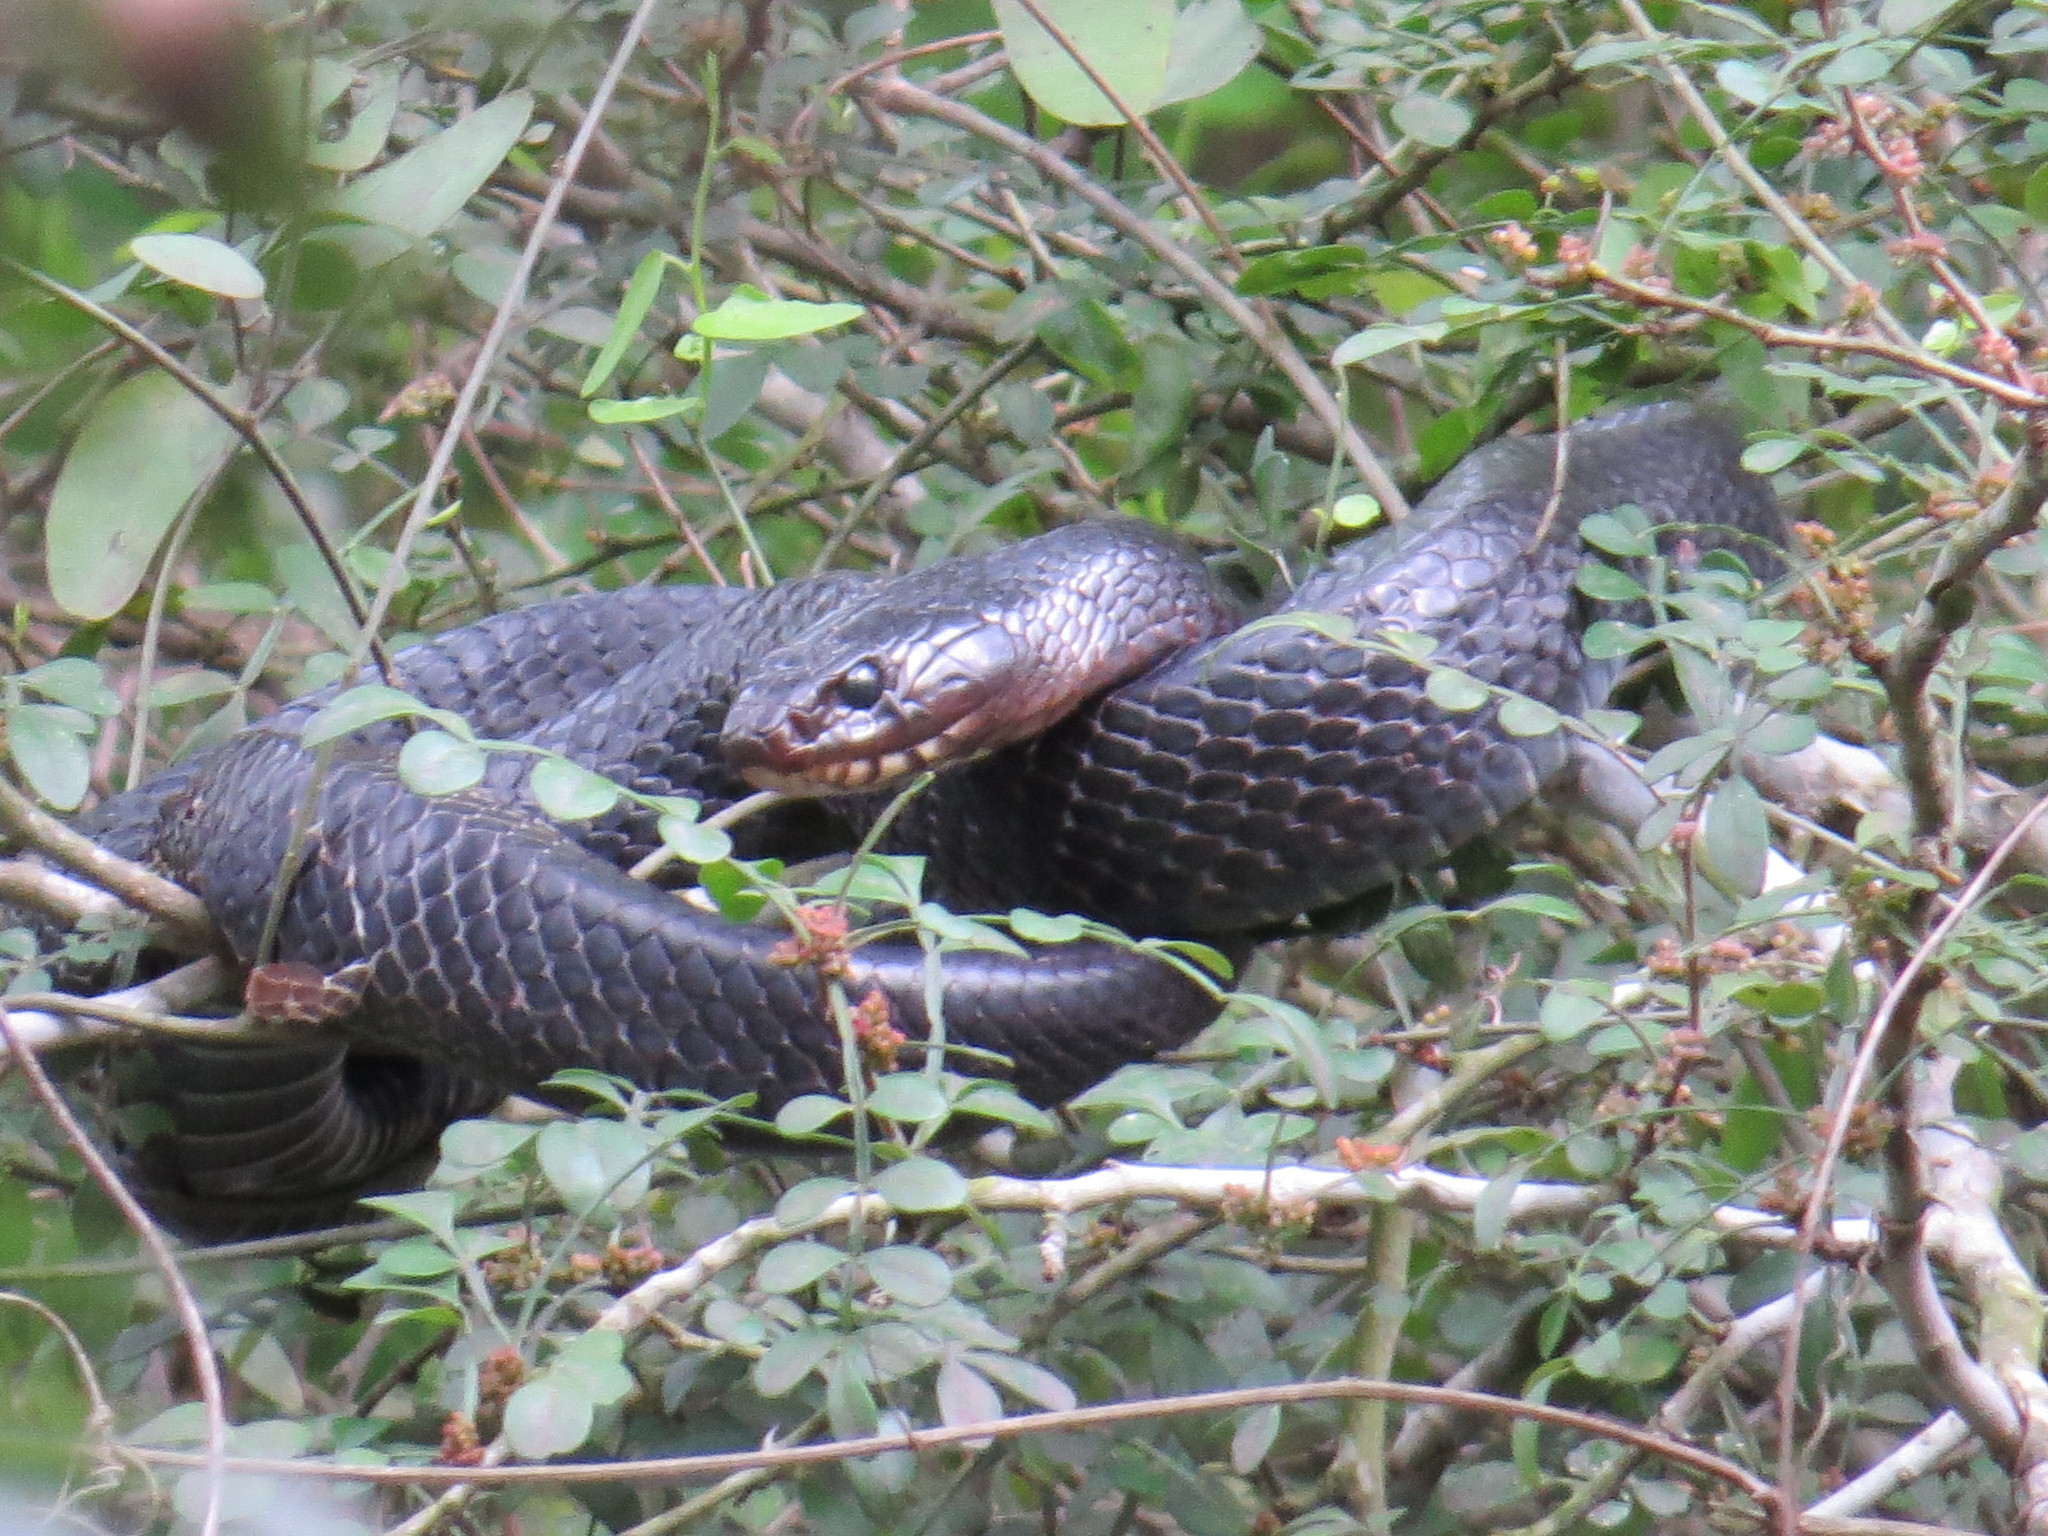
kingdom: Animalia
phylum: Chordata
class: Squamata
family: Colubridae
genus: Drymarchon
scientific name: Drymarchon melanurus
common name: Central american indigo snake
